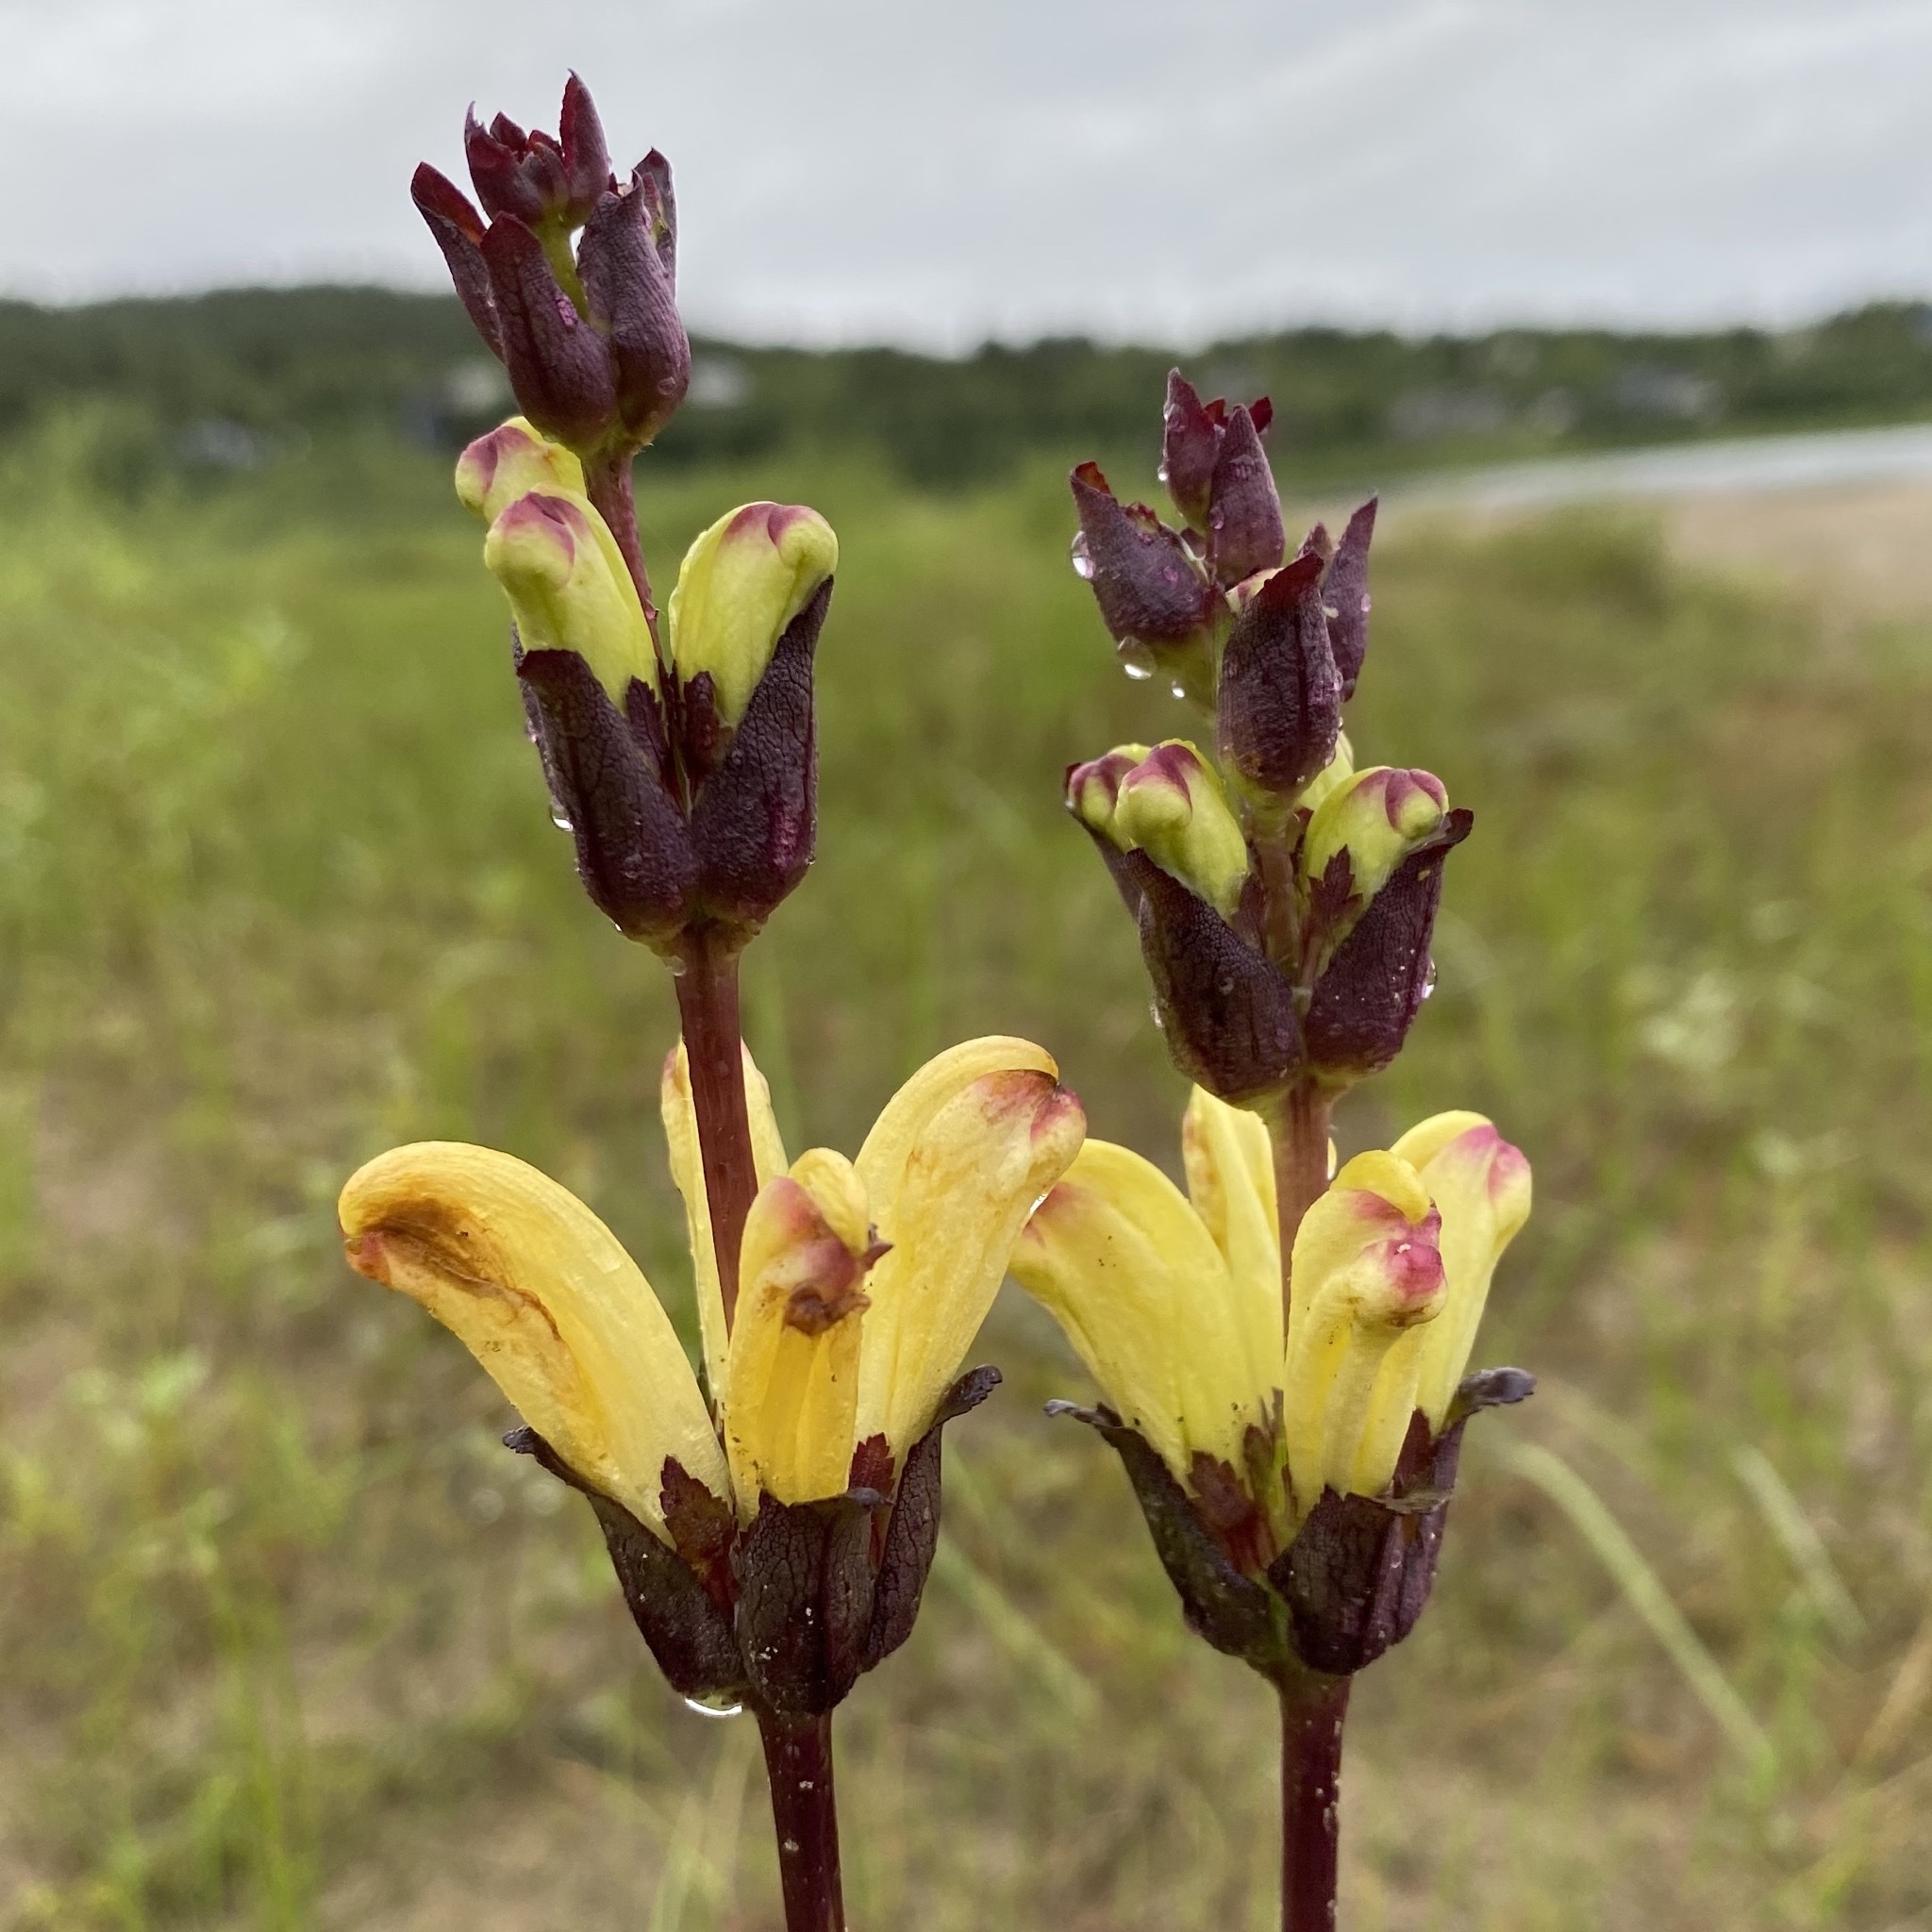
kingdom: Plantae
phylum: Tracheophyta
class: Magnoliopsida
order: Lamiales
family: Orobanchaceae
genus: Pedicularis
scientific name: Pedicularis sceptrum-carolinum
